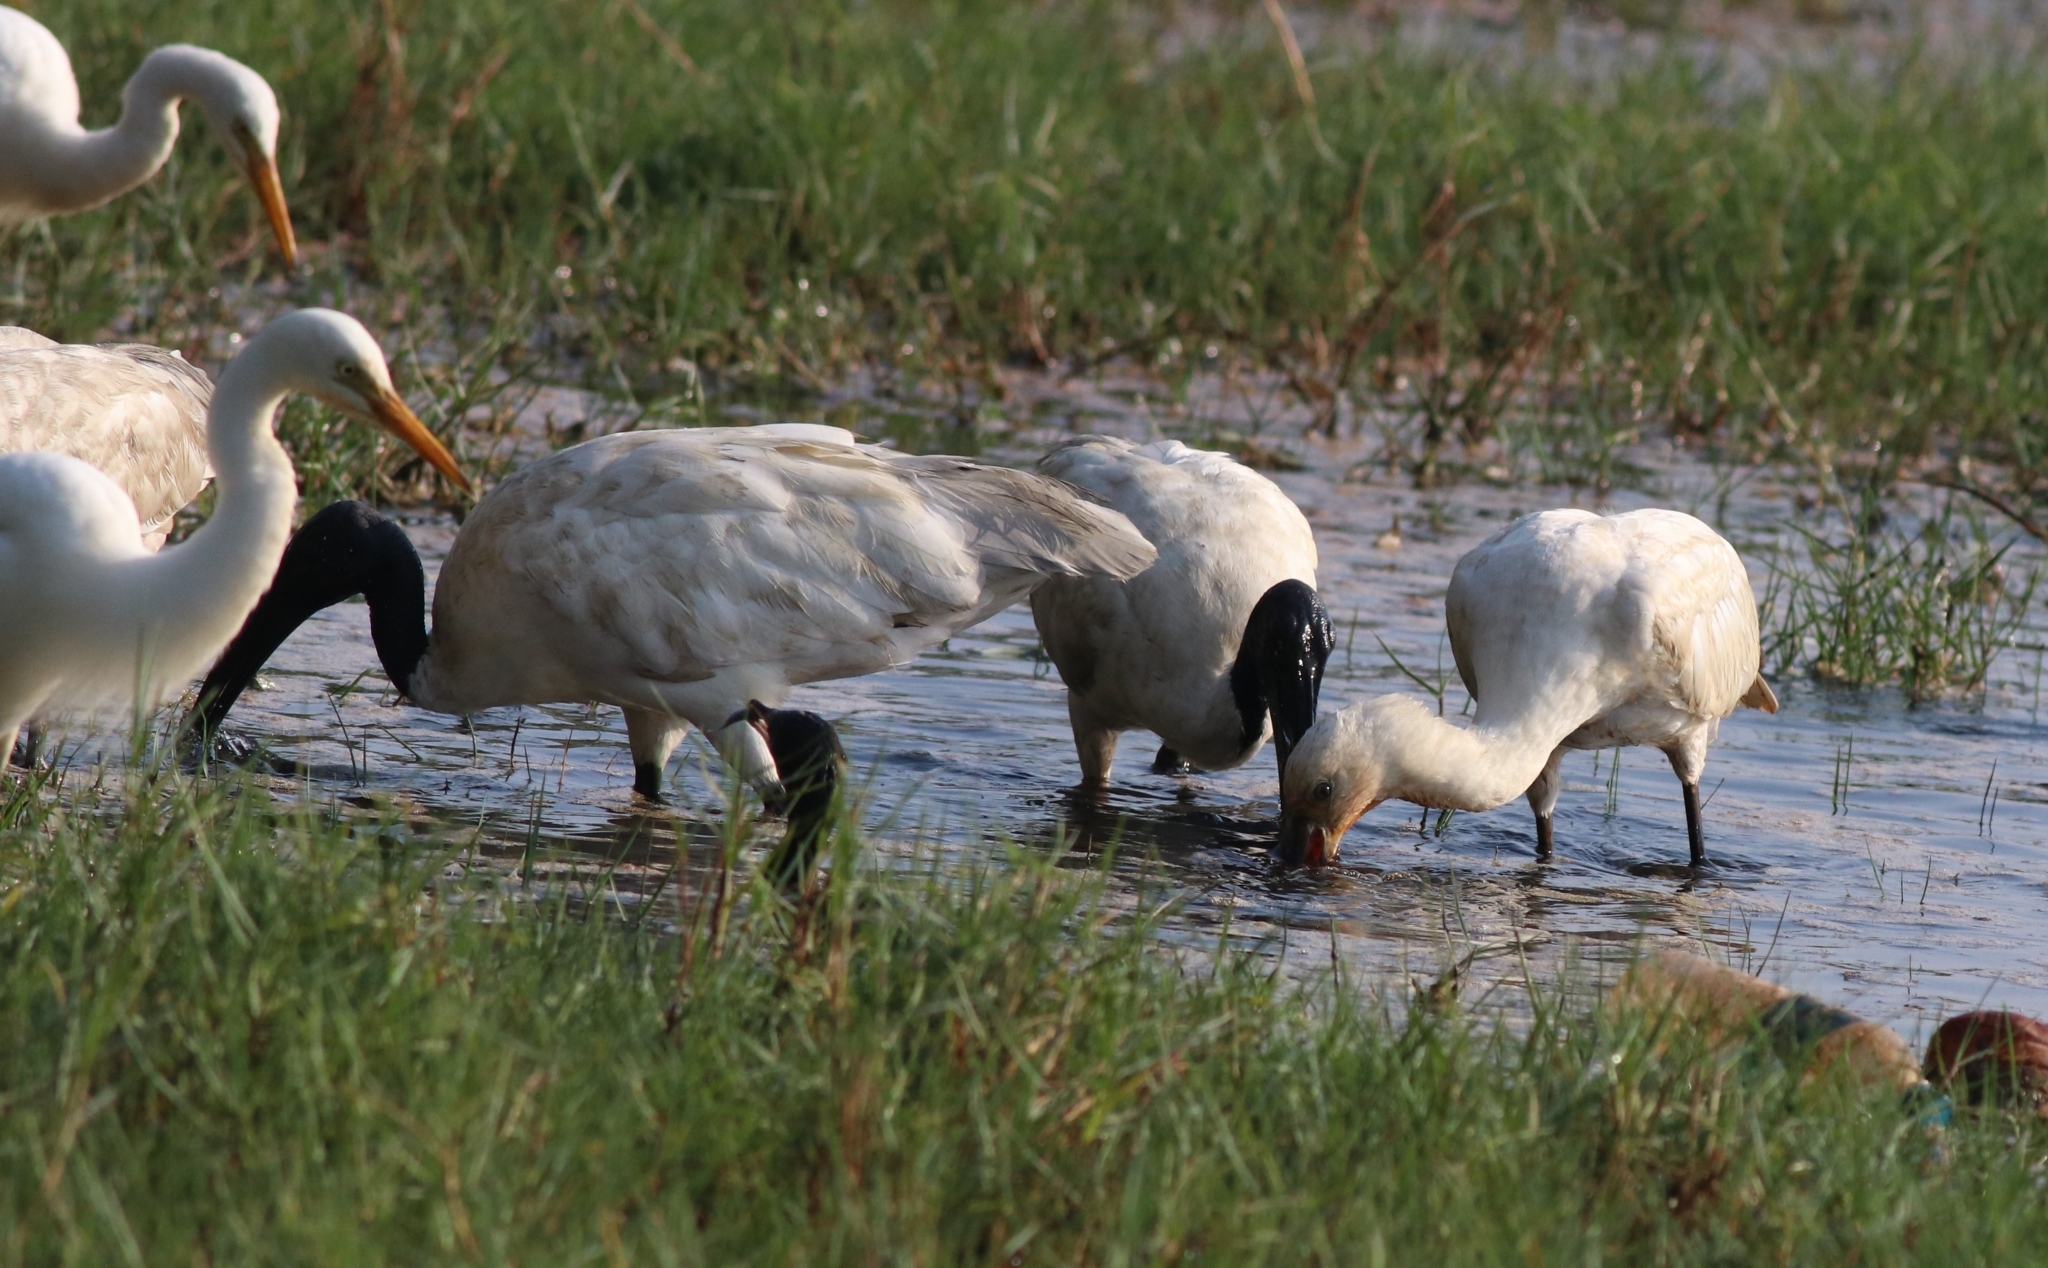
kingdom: Animalia
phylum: Chordata
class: Aves
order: Pelecaniformes
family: Threskiornithidae
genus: Threskiornis
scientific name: Threskiornis melanocephalus
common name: Black-headed ibis
